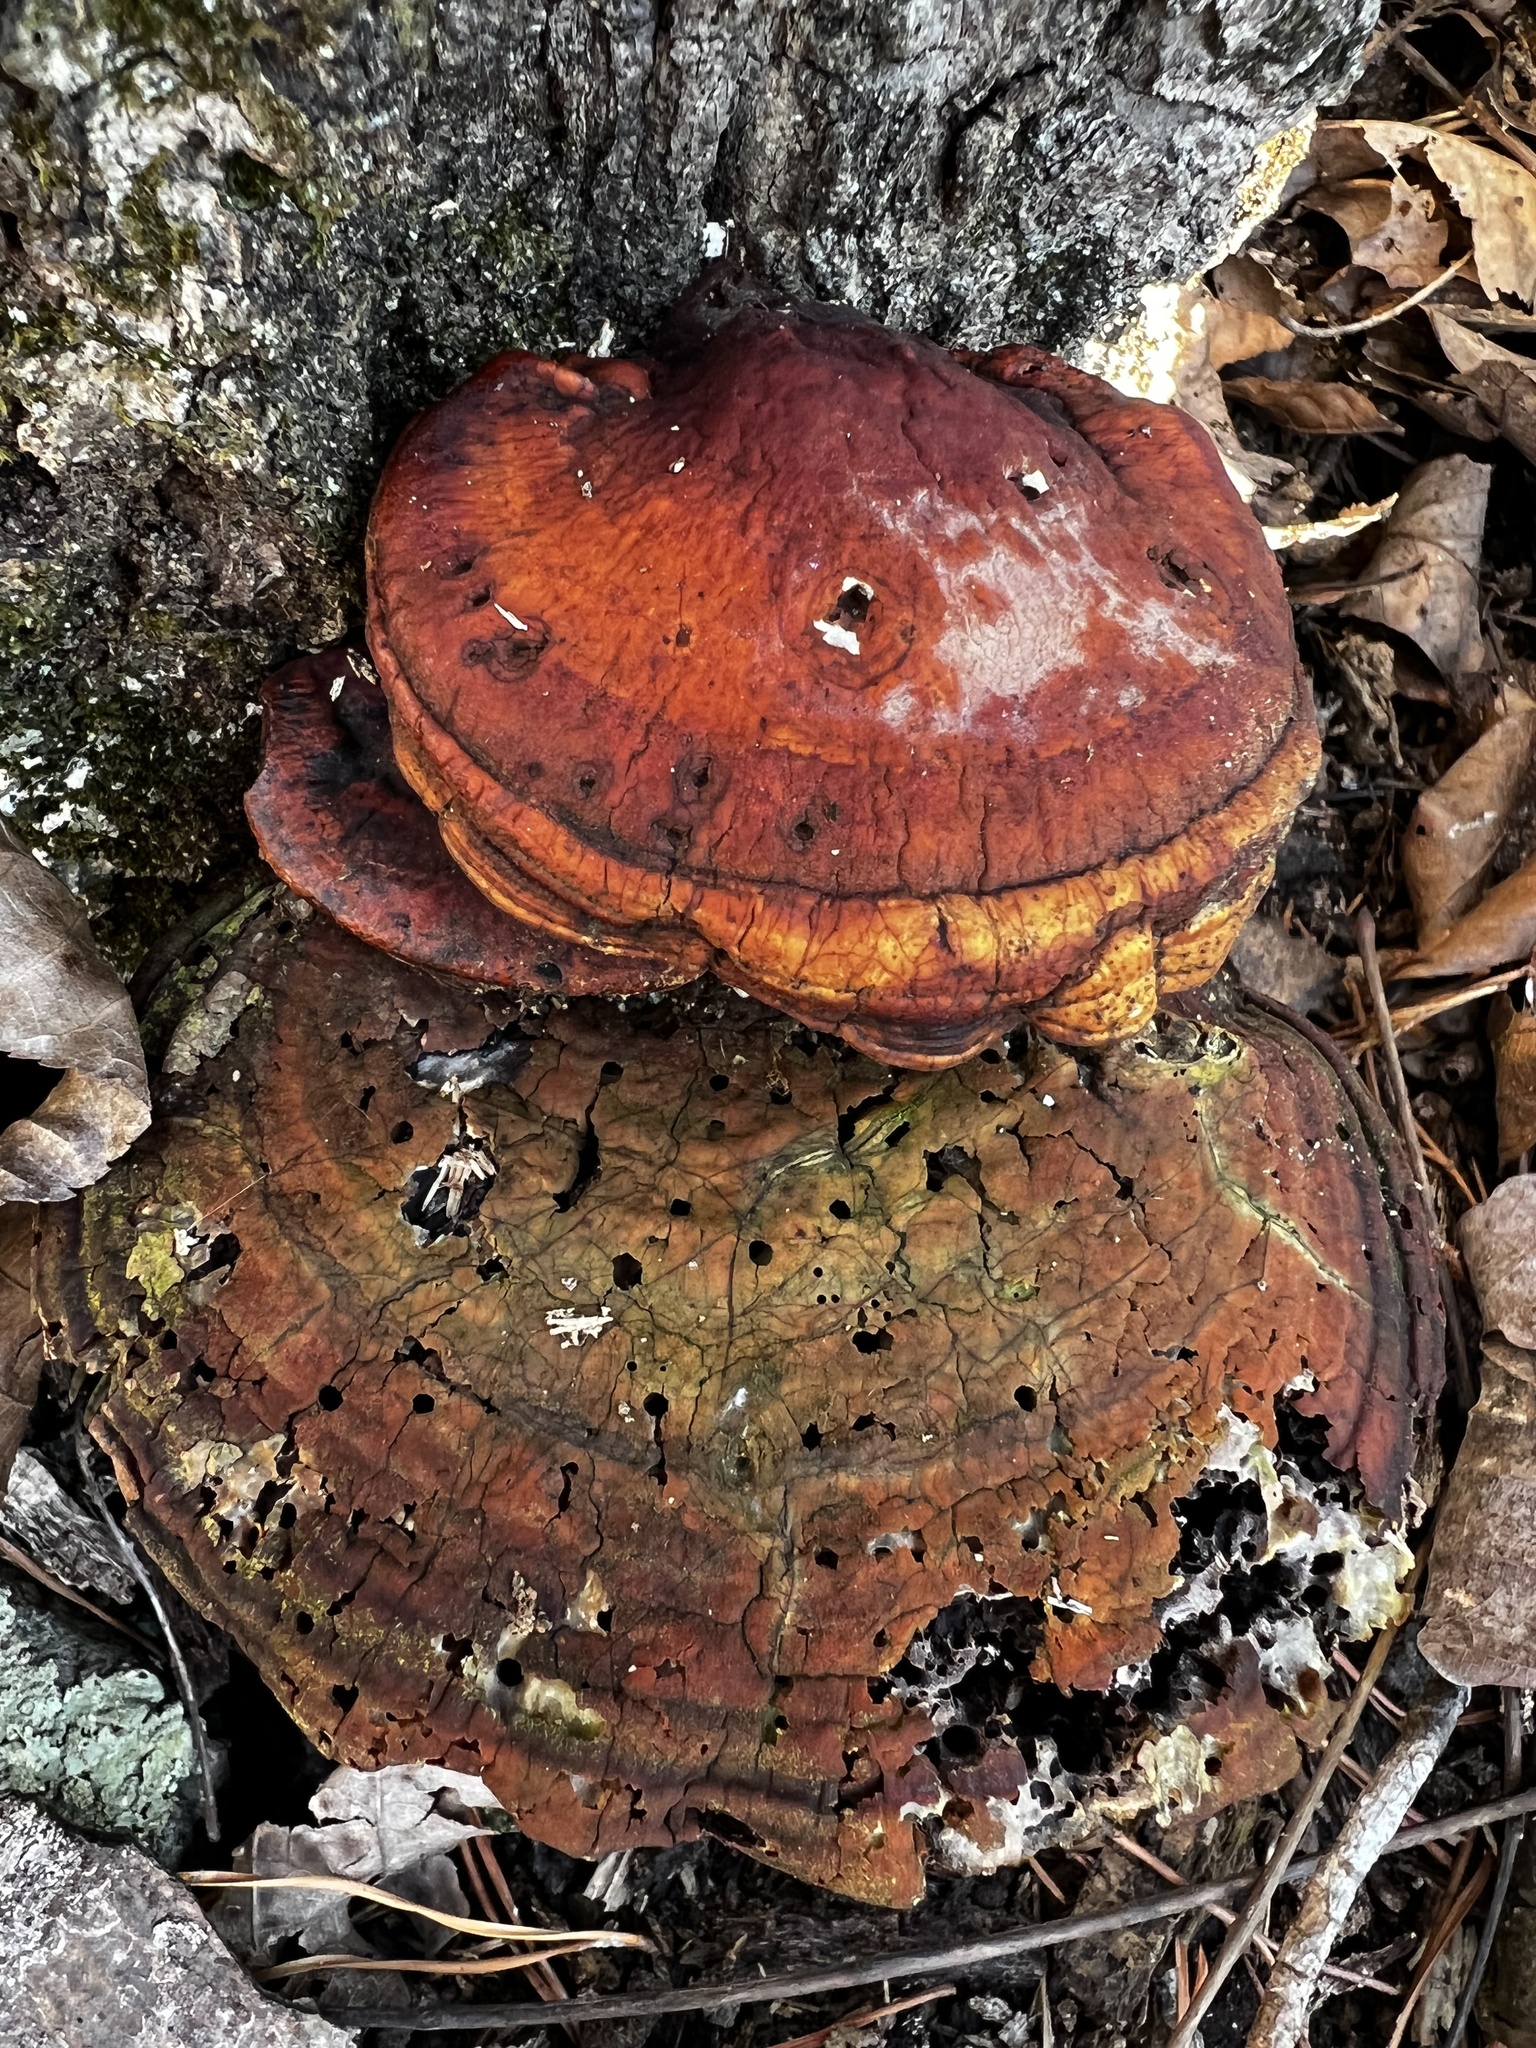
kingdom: Fungi
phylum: Basidiomycota
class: Agaricomycetes
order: Polyporales
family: Polyporaceae
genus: Ganoderma
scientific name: Ganoderma curtisii
